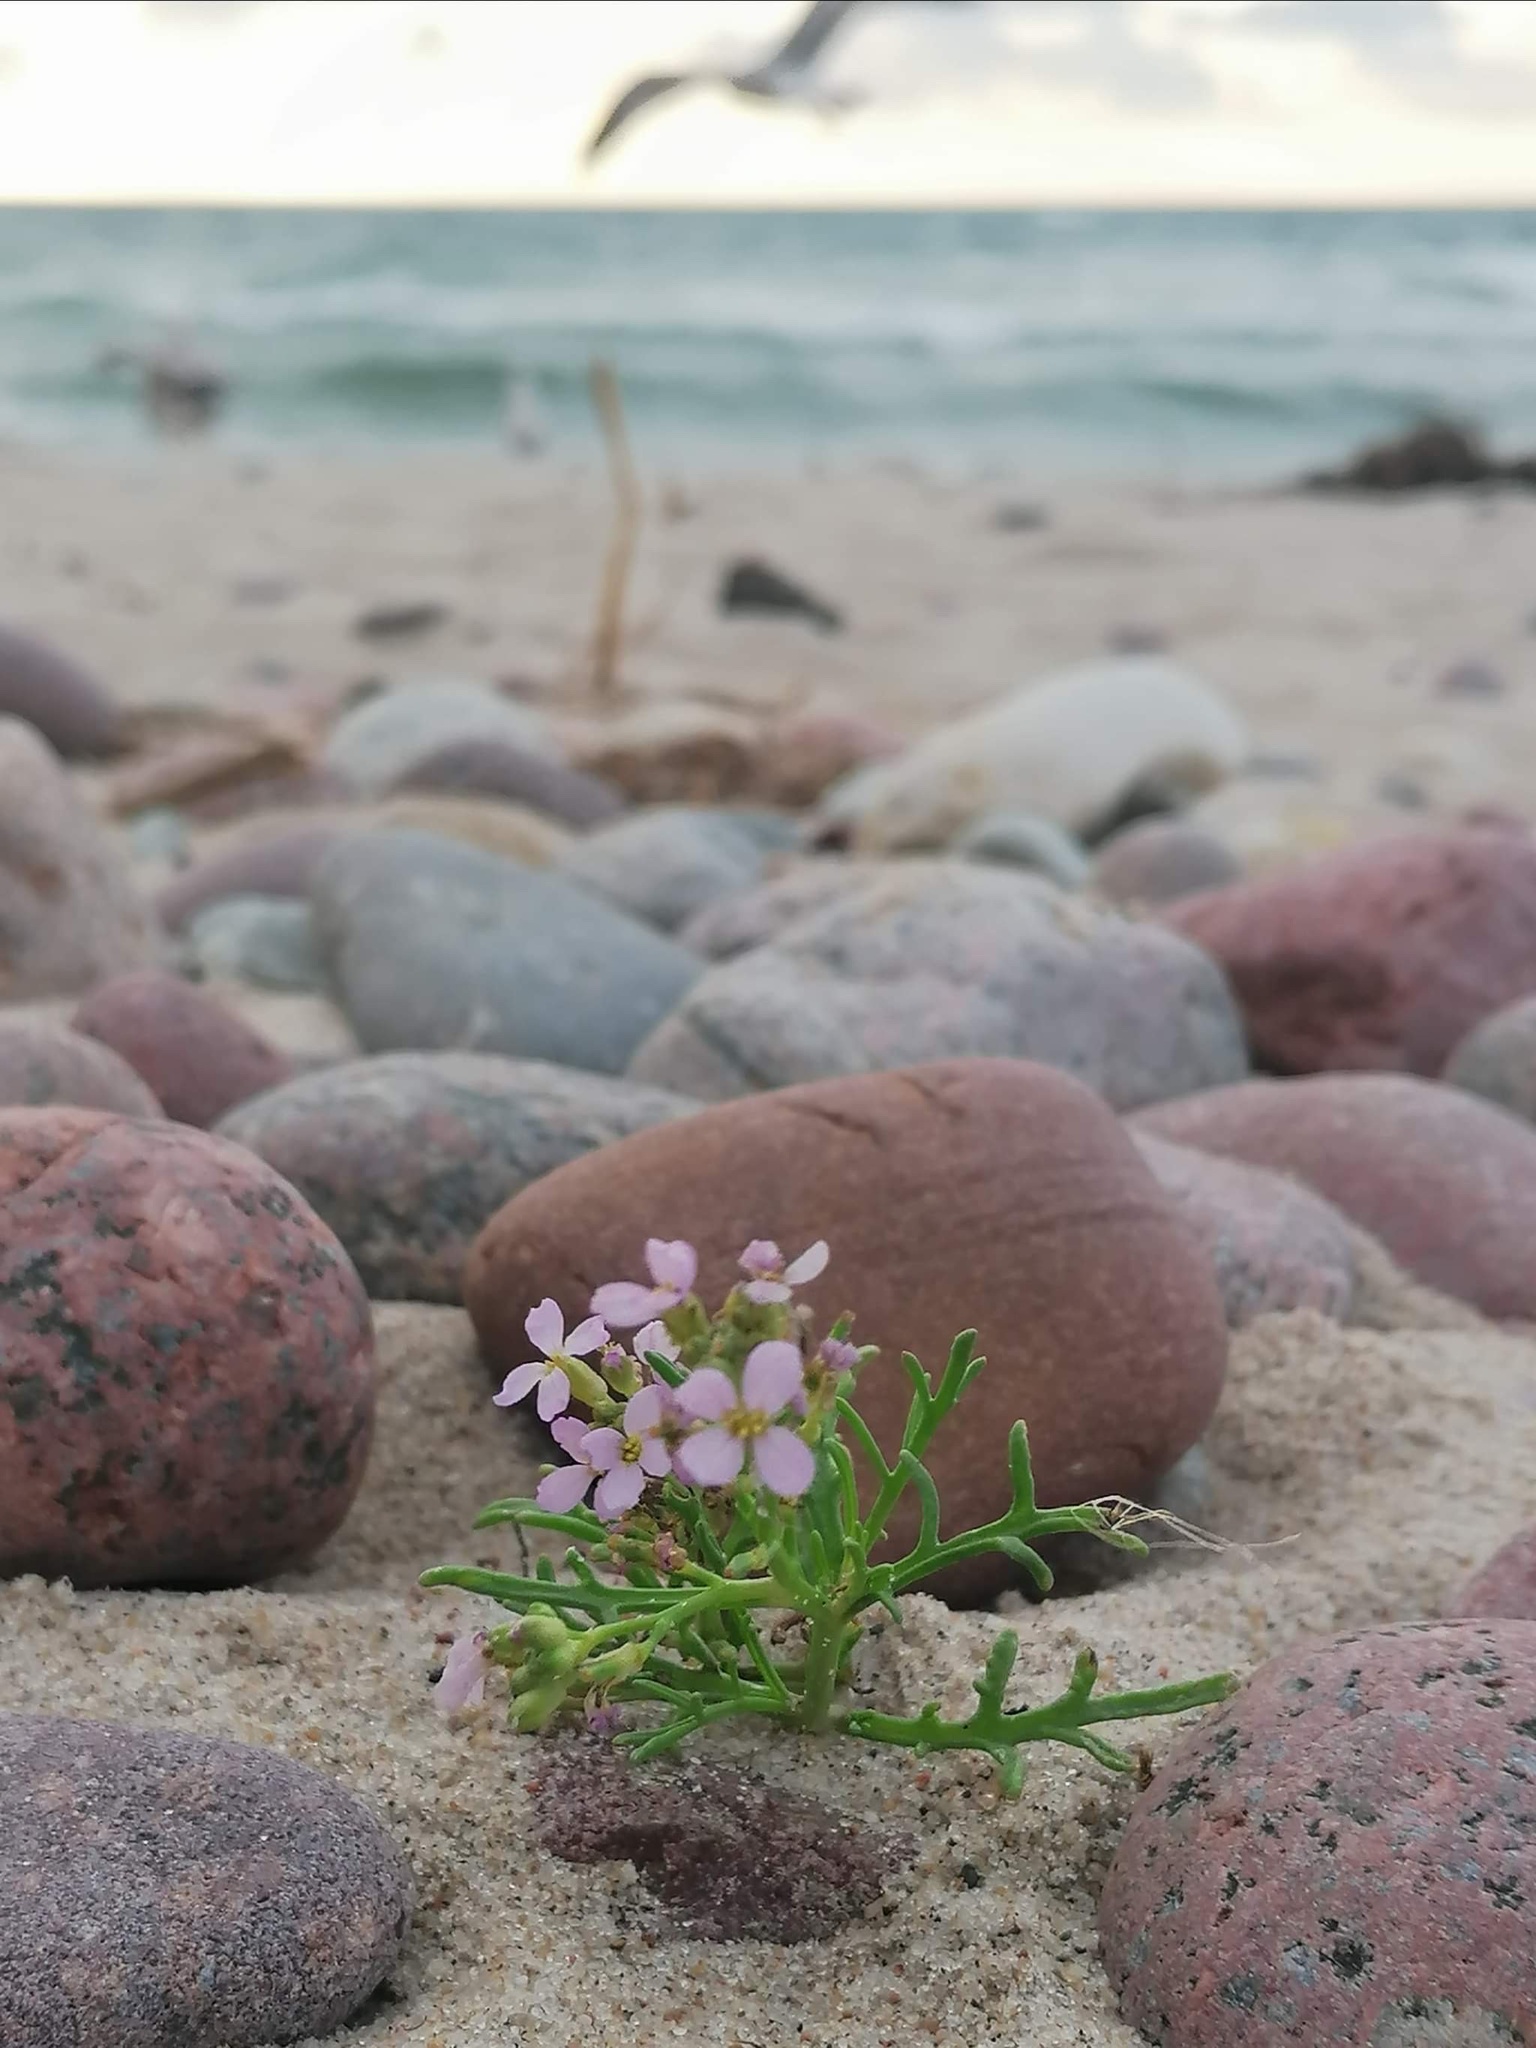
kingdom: Plantae
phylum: Tracheophyta
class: Magnoliopsida
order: Brassicales
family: Brassicaceae
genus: Cakile
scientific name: Cakile maritima
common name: Sea rocket
